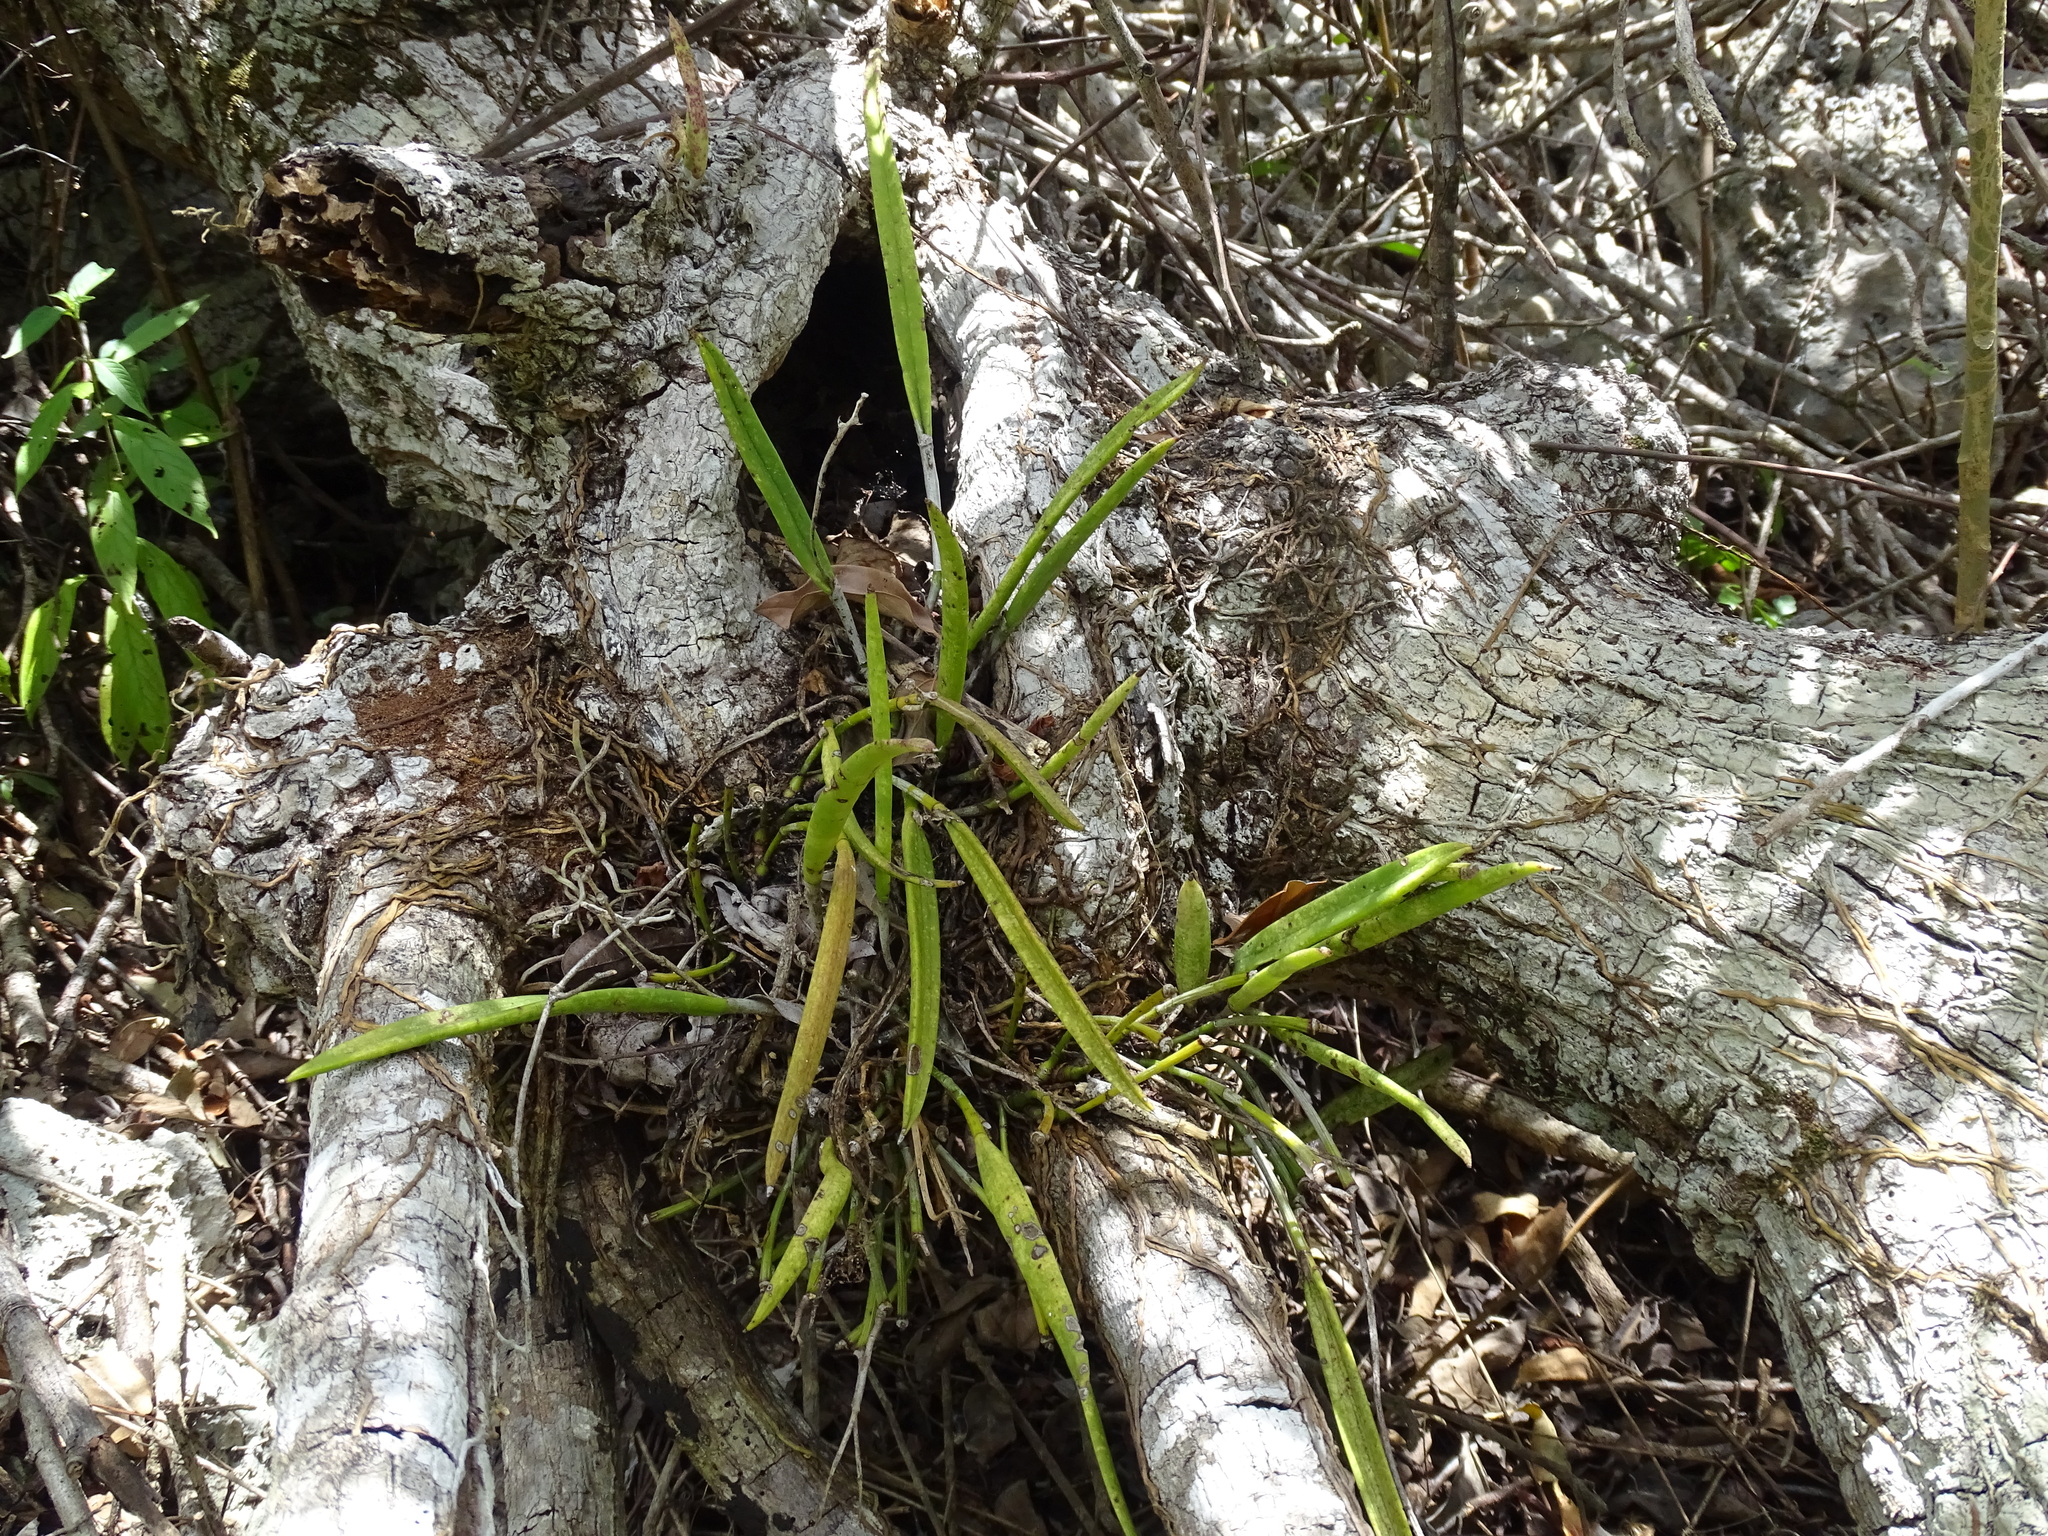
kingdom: Plantae
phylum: Tracheophyta
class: Liliopsida
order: Asparagales
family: Orchidaceae
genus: Brassavola
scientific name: Brassavola nodosa
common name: Lady of the night
